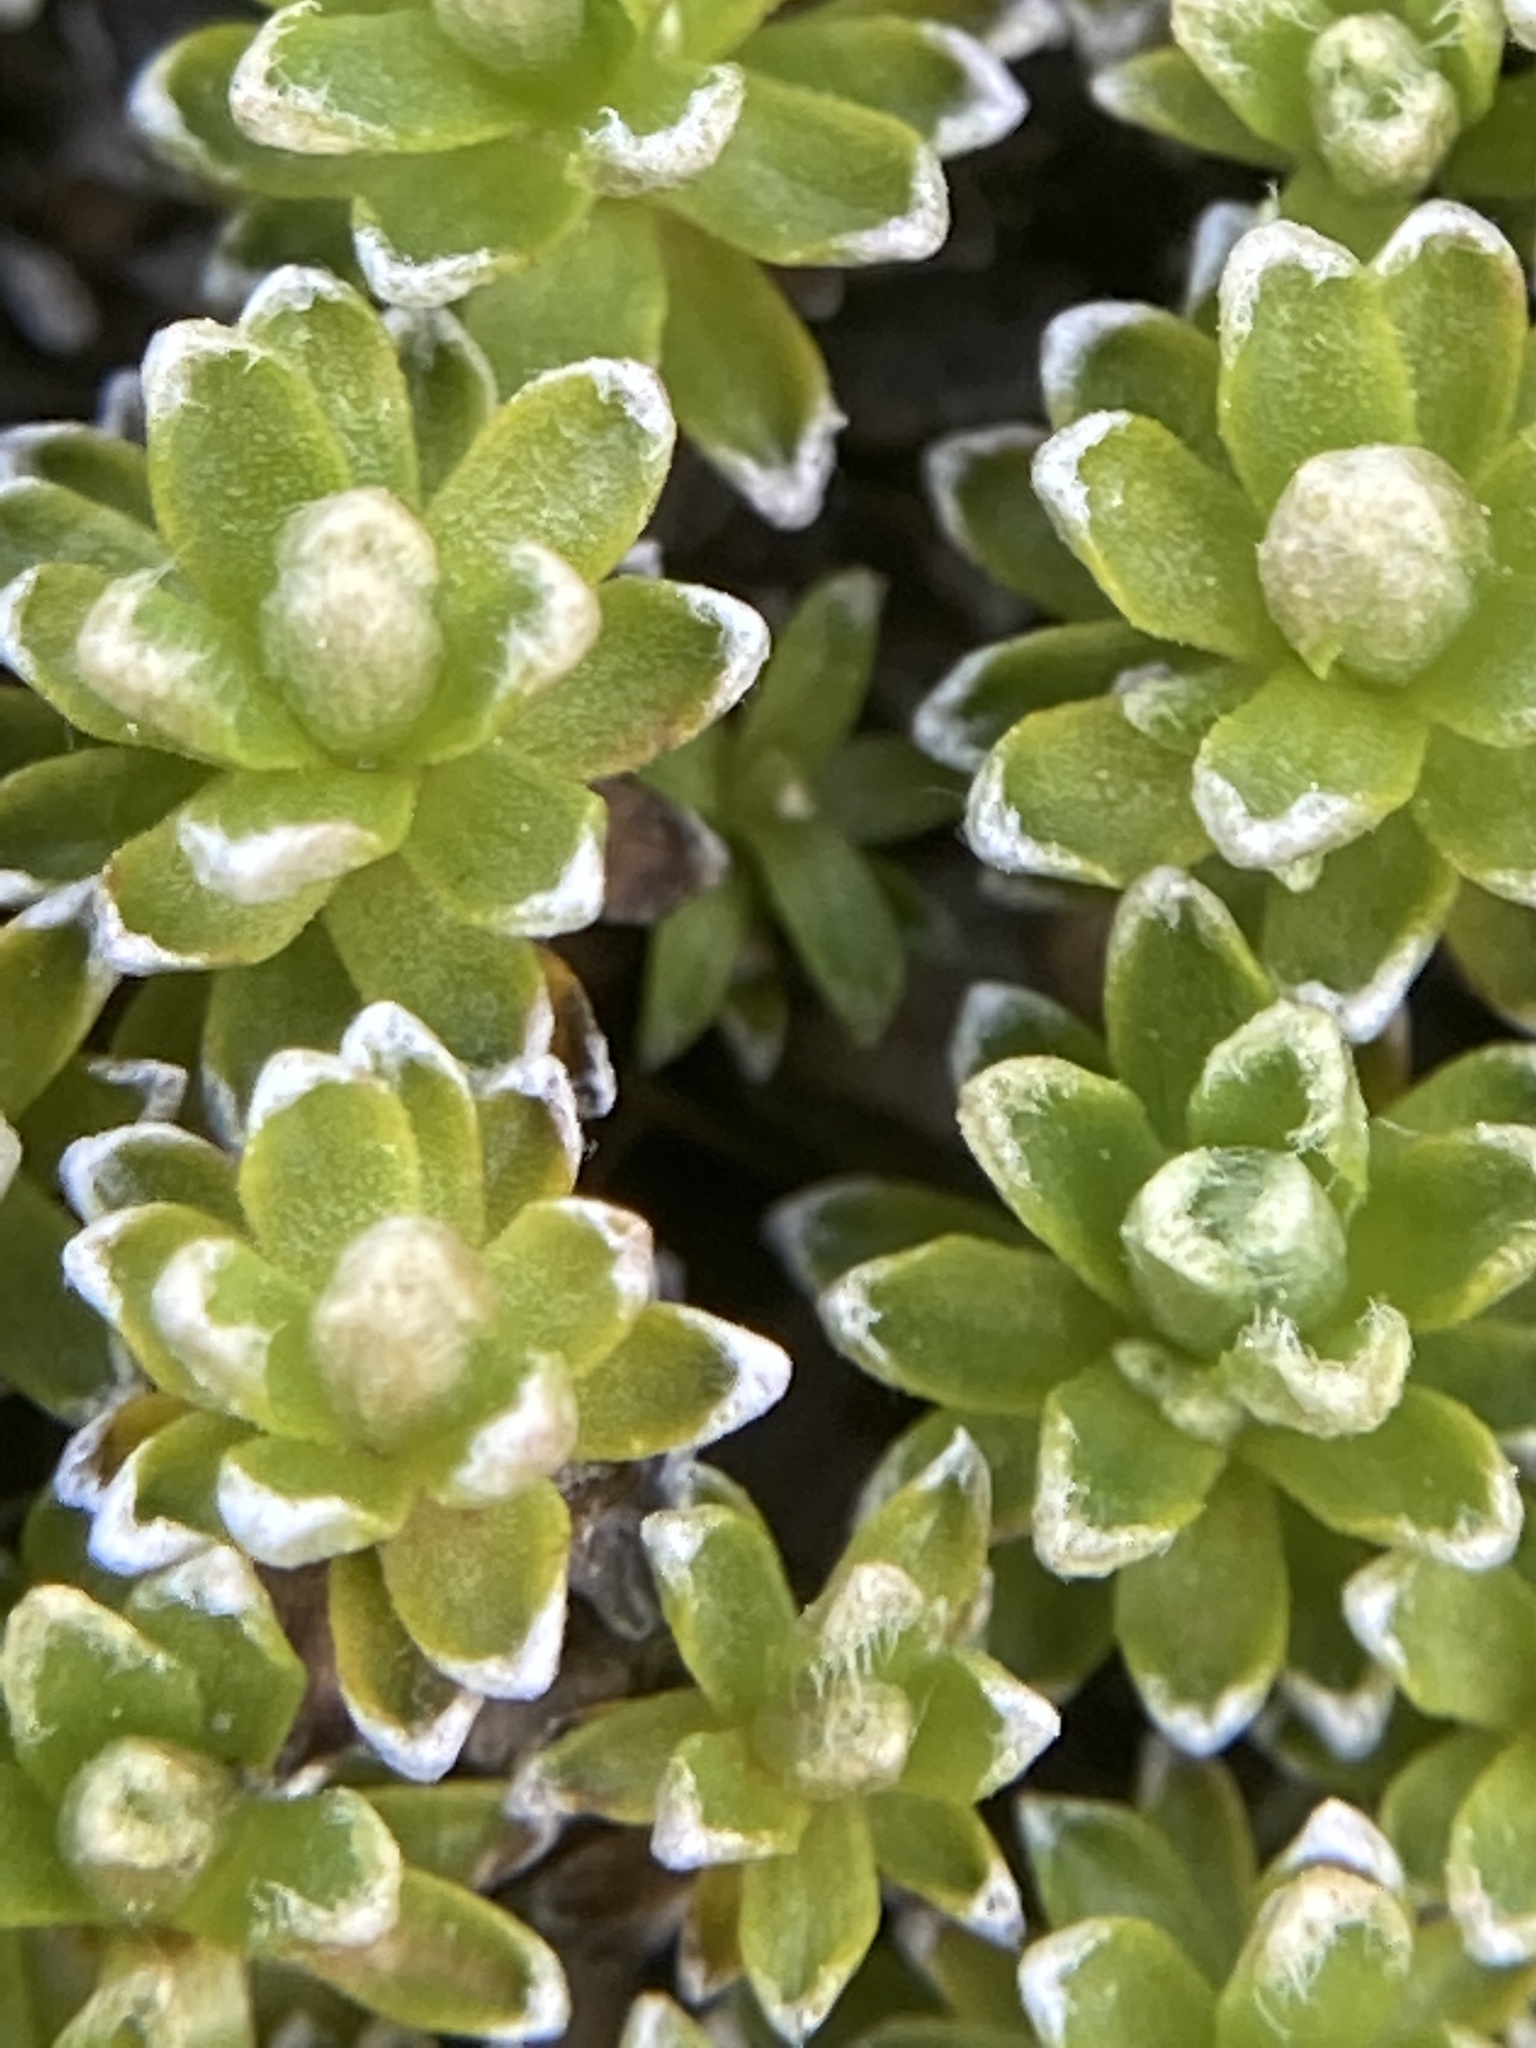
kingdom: Plantae
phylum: Tracheophyta
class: Magnoliopsida
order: Asterales
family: Asteraceae
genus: Raoulia
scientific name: Raoulia subsericea
